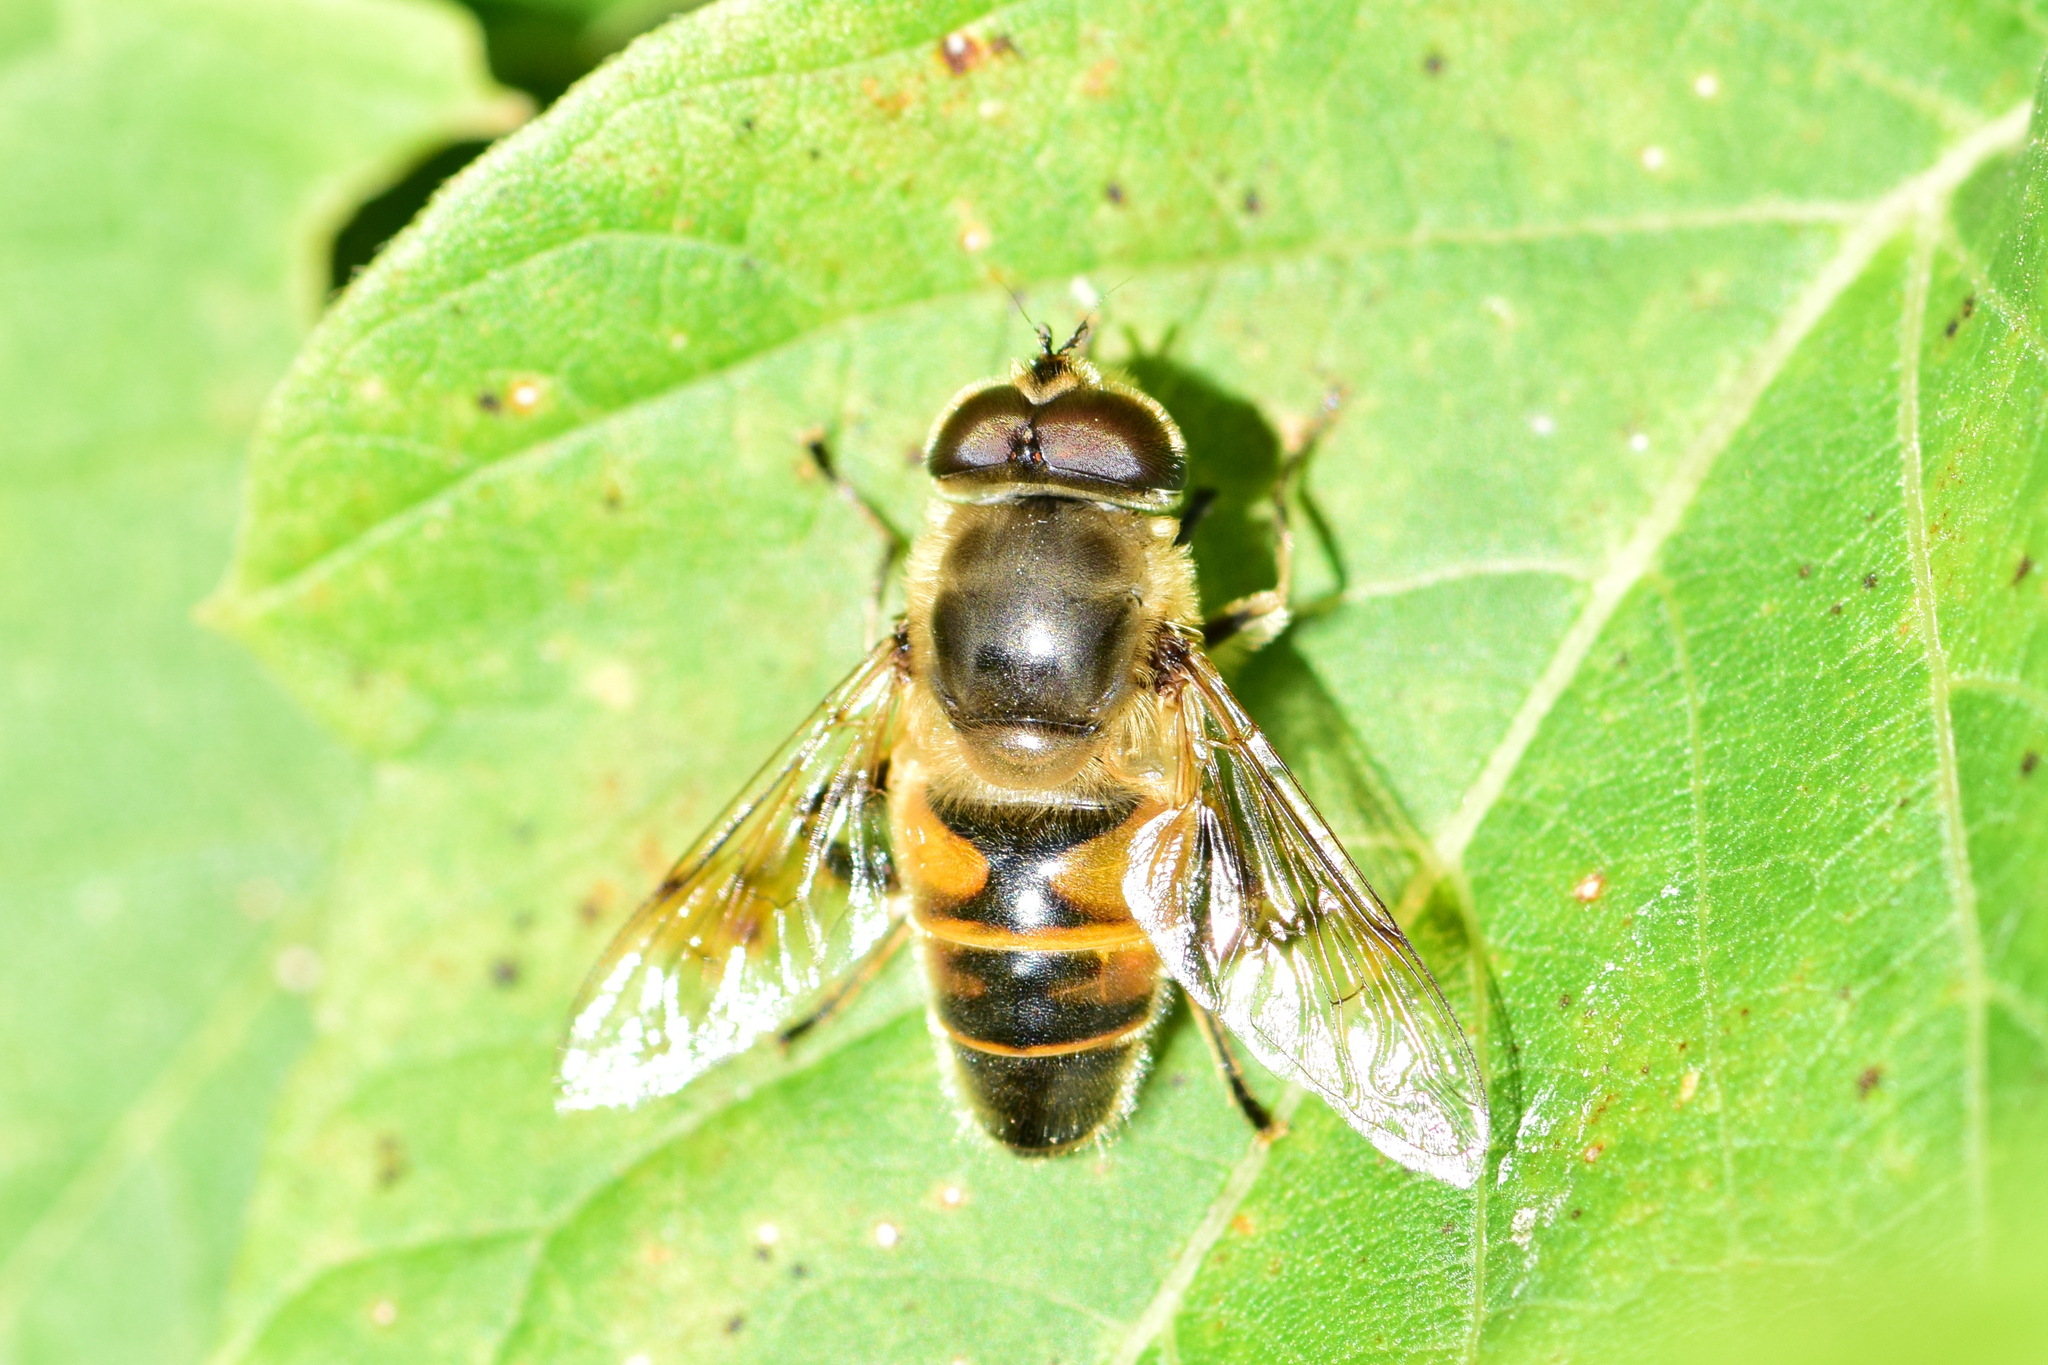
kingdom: Animalia
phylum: Arthropoda
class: Insecta
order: Diptera
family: Syrphidae
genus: Eristalis
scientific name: Eristalis tenax
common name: Drone fly
